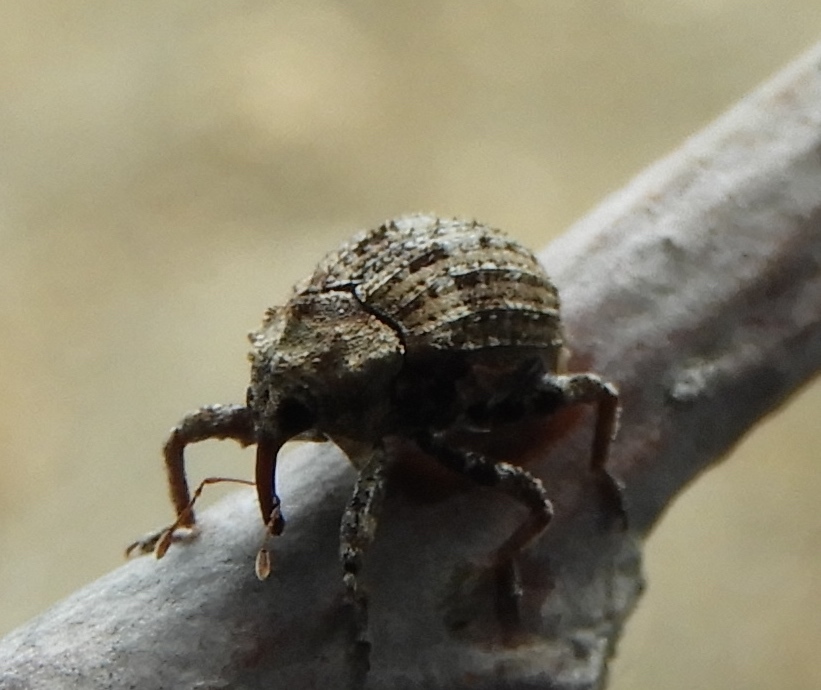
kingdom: Animalia
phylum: Arthropoda
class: Insecta
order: Coleoptera
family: Curculionidae
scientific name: Curculionidae
